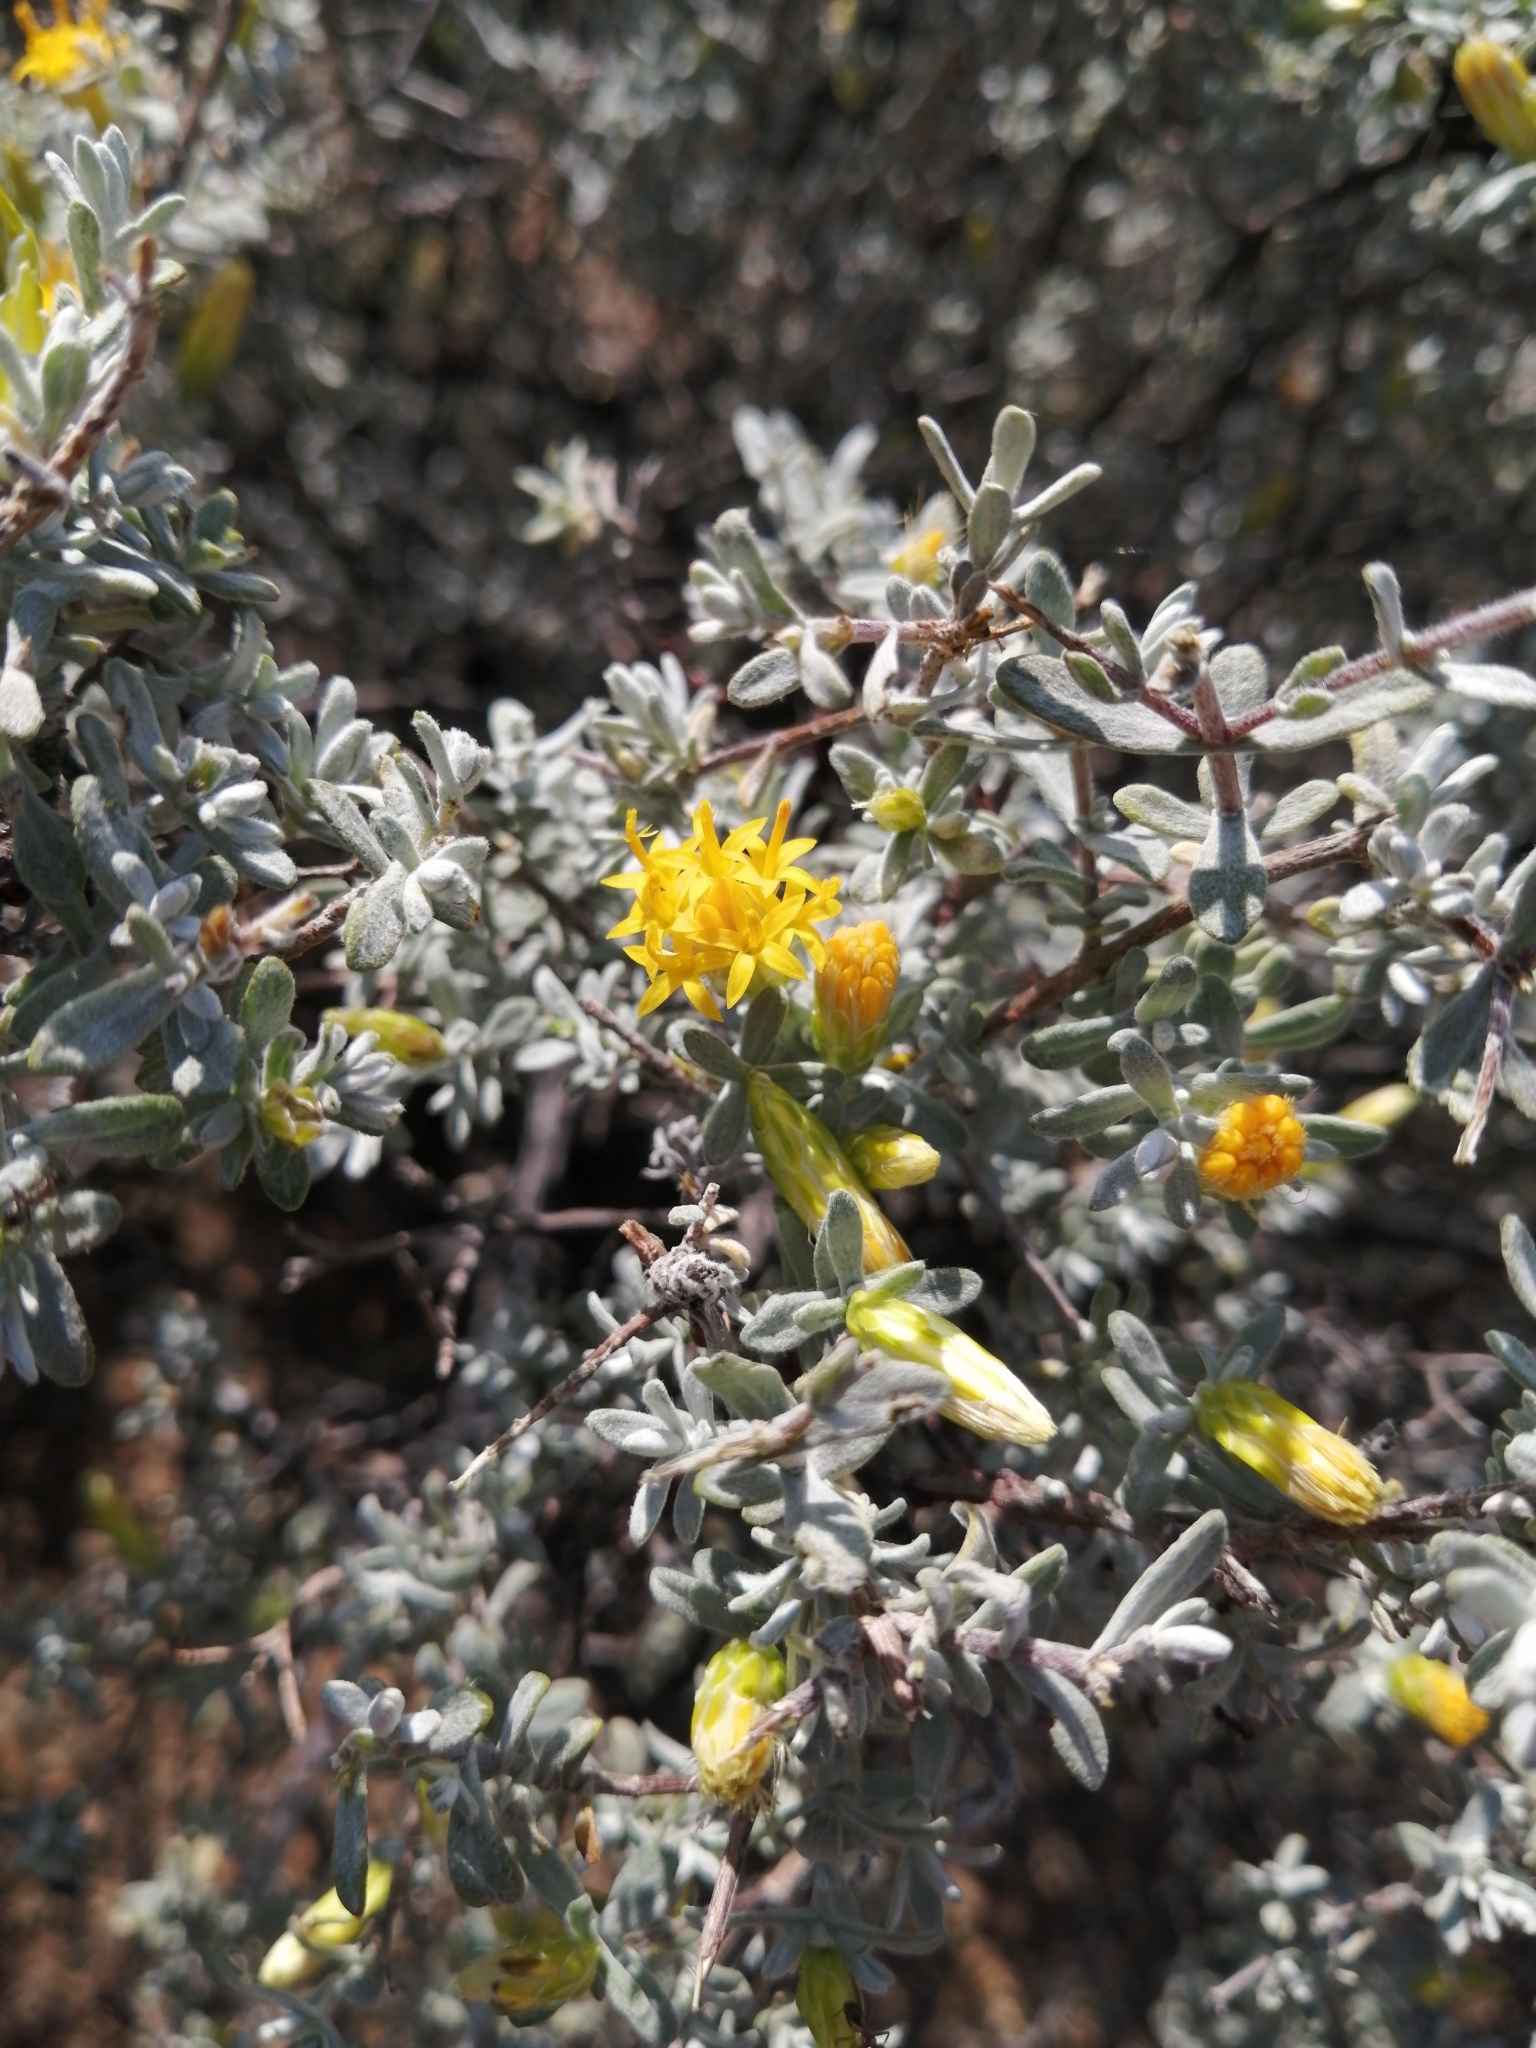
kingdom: Plantae
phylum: Tracheophyta
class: Magnoliopsida
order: Asterales
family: Asteraceae
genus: Pteronia
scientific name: Pteronia incana
